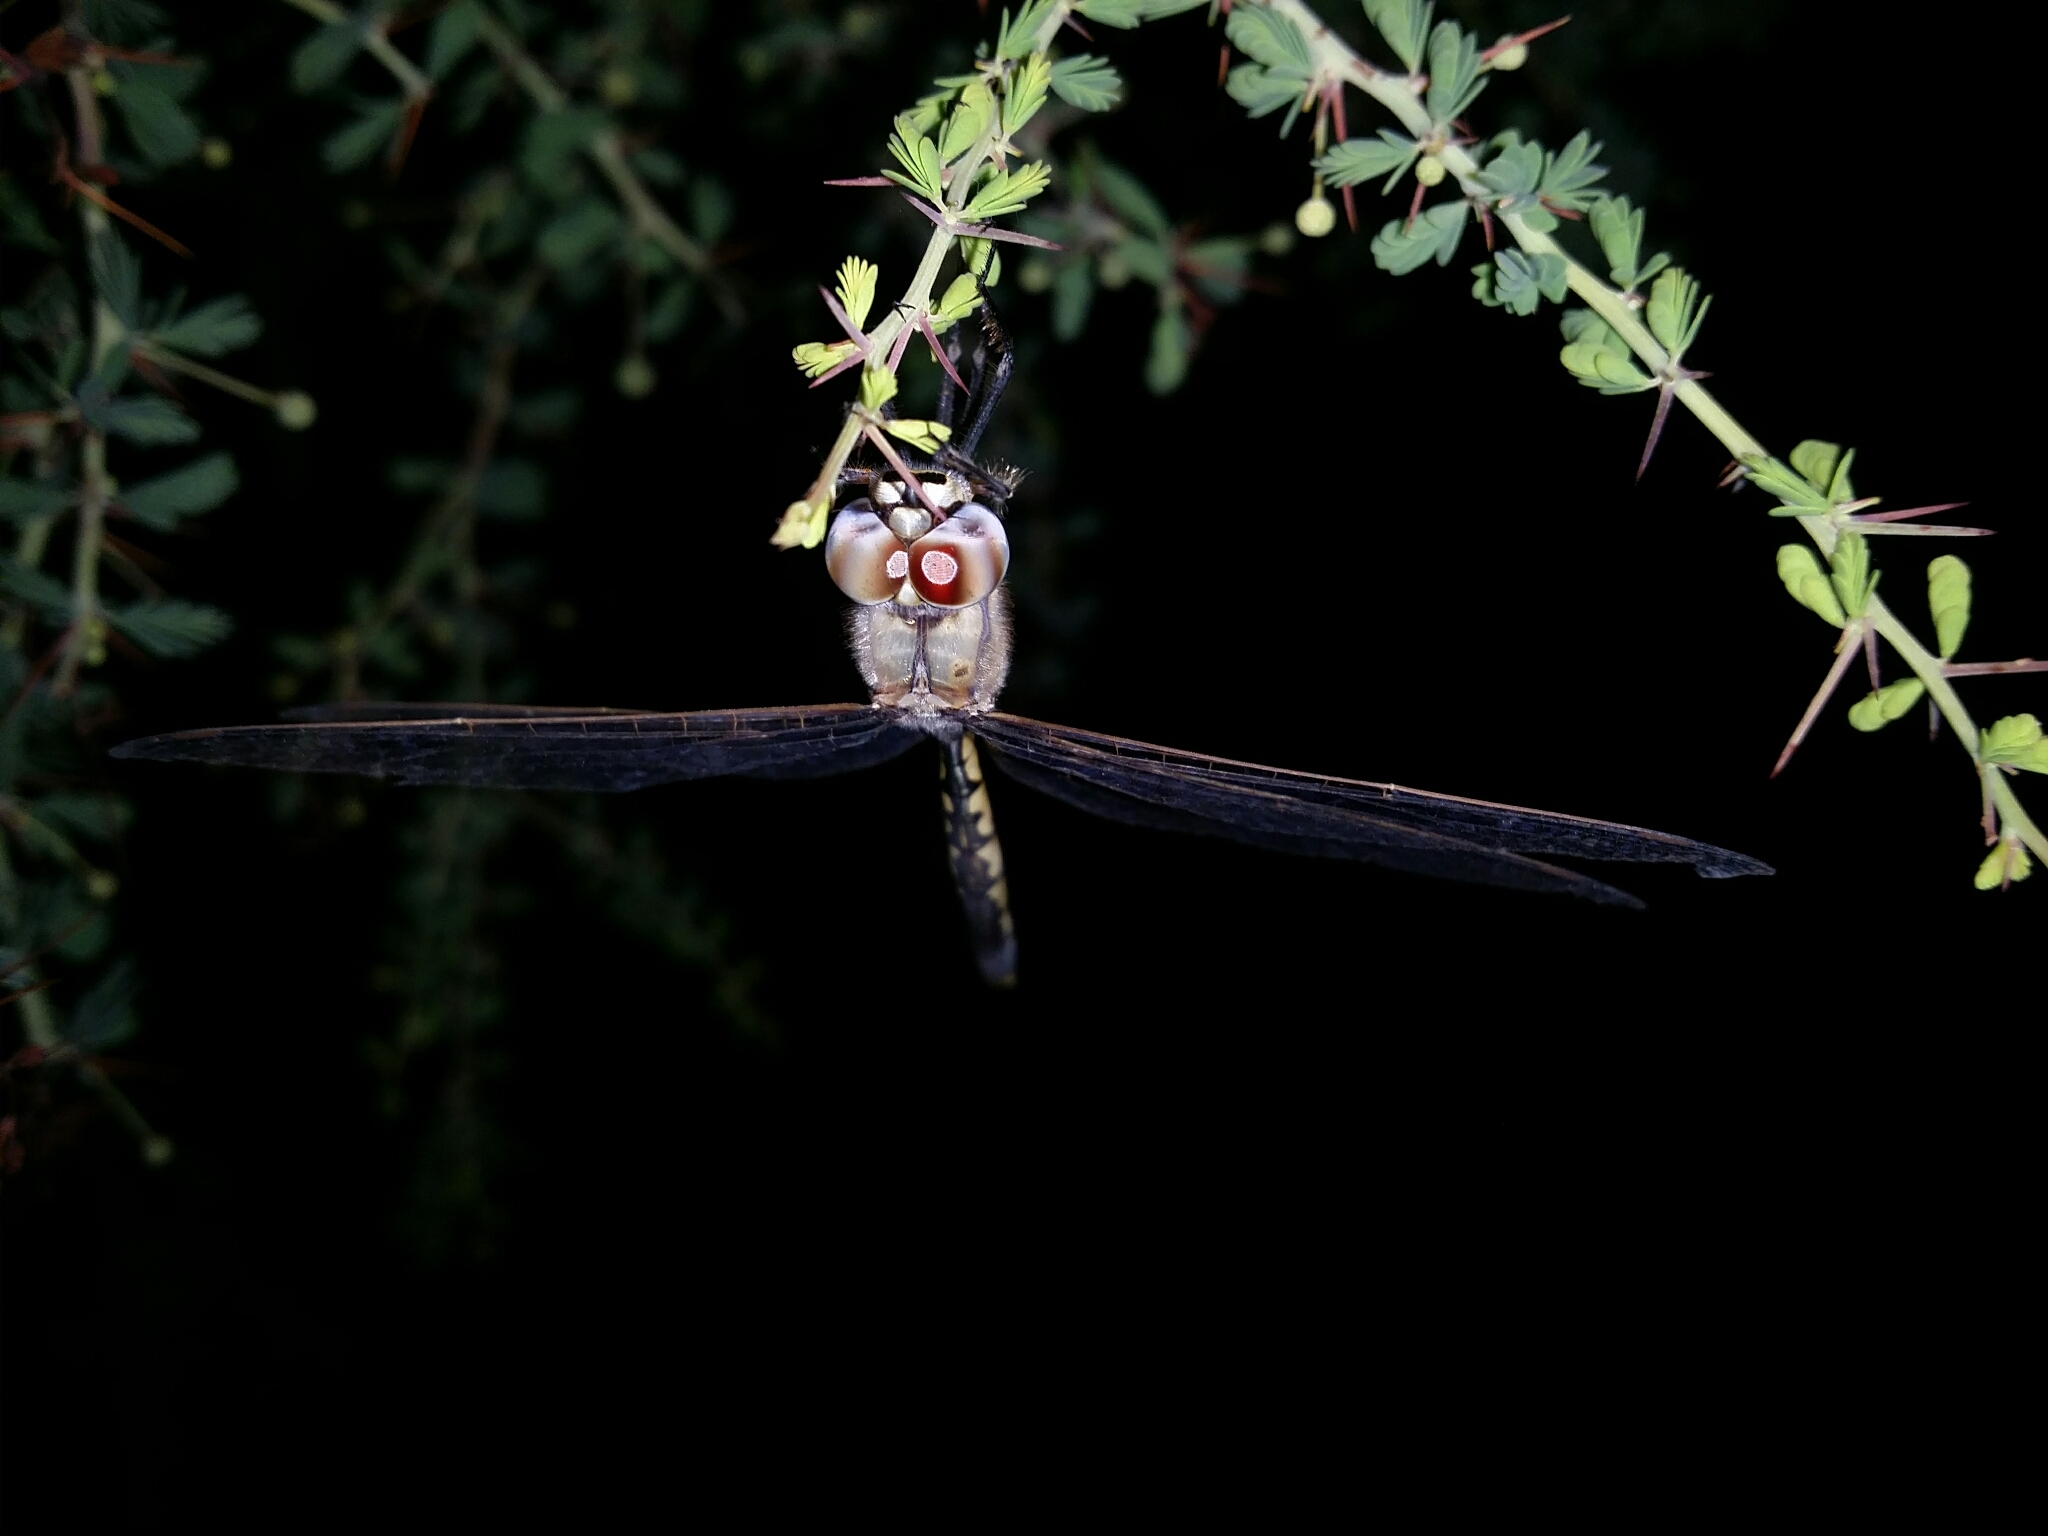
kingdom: Animalia
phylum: Arthropoda
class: Insecta
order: Odonata
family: Corduliidae
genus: Hemicordulia
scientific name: Hemicordulia tau
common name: Tau emerald
